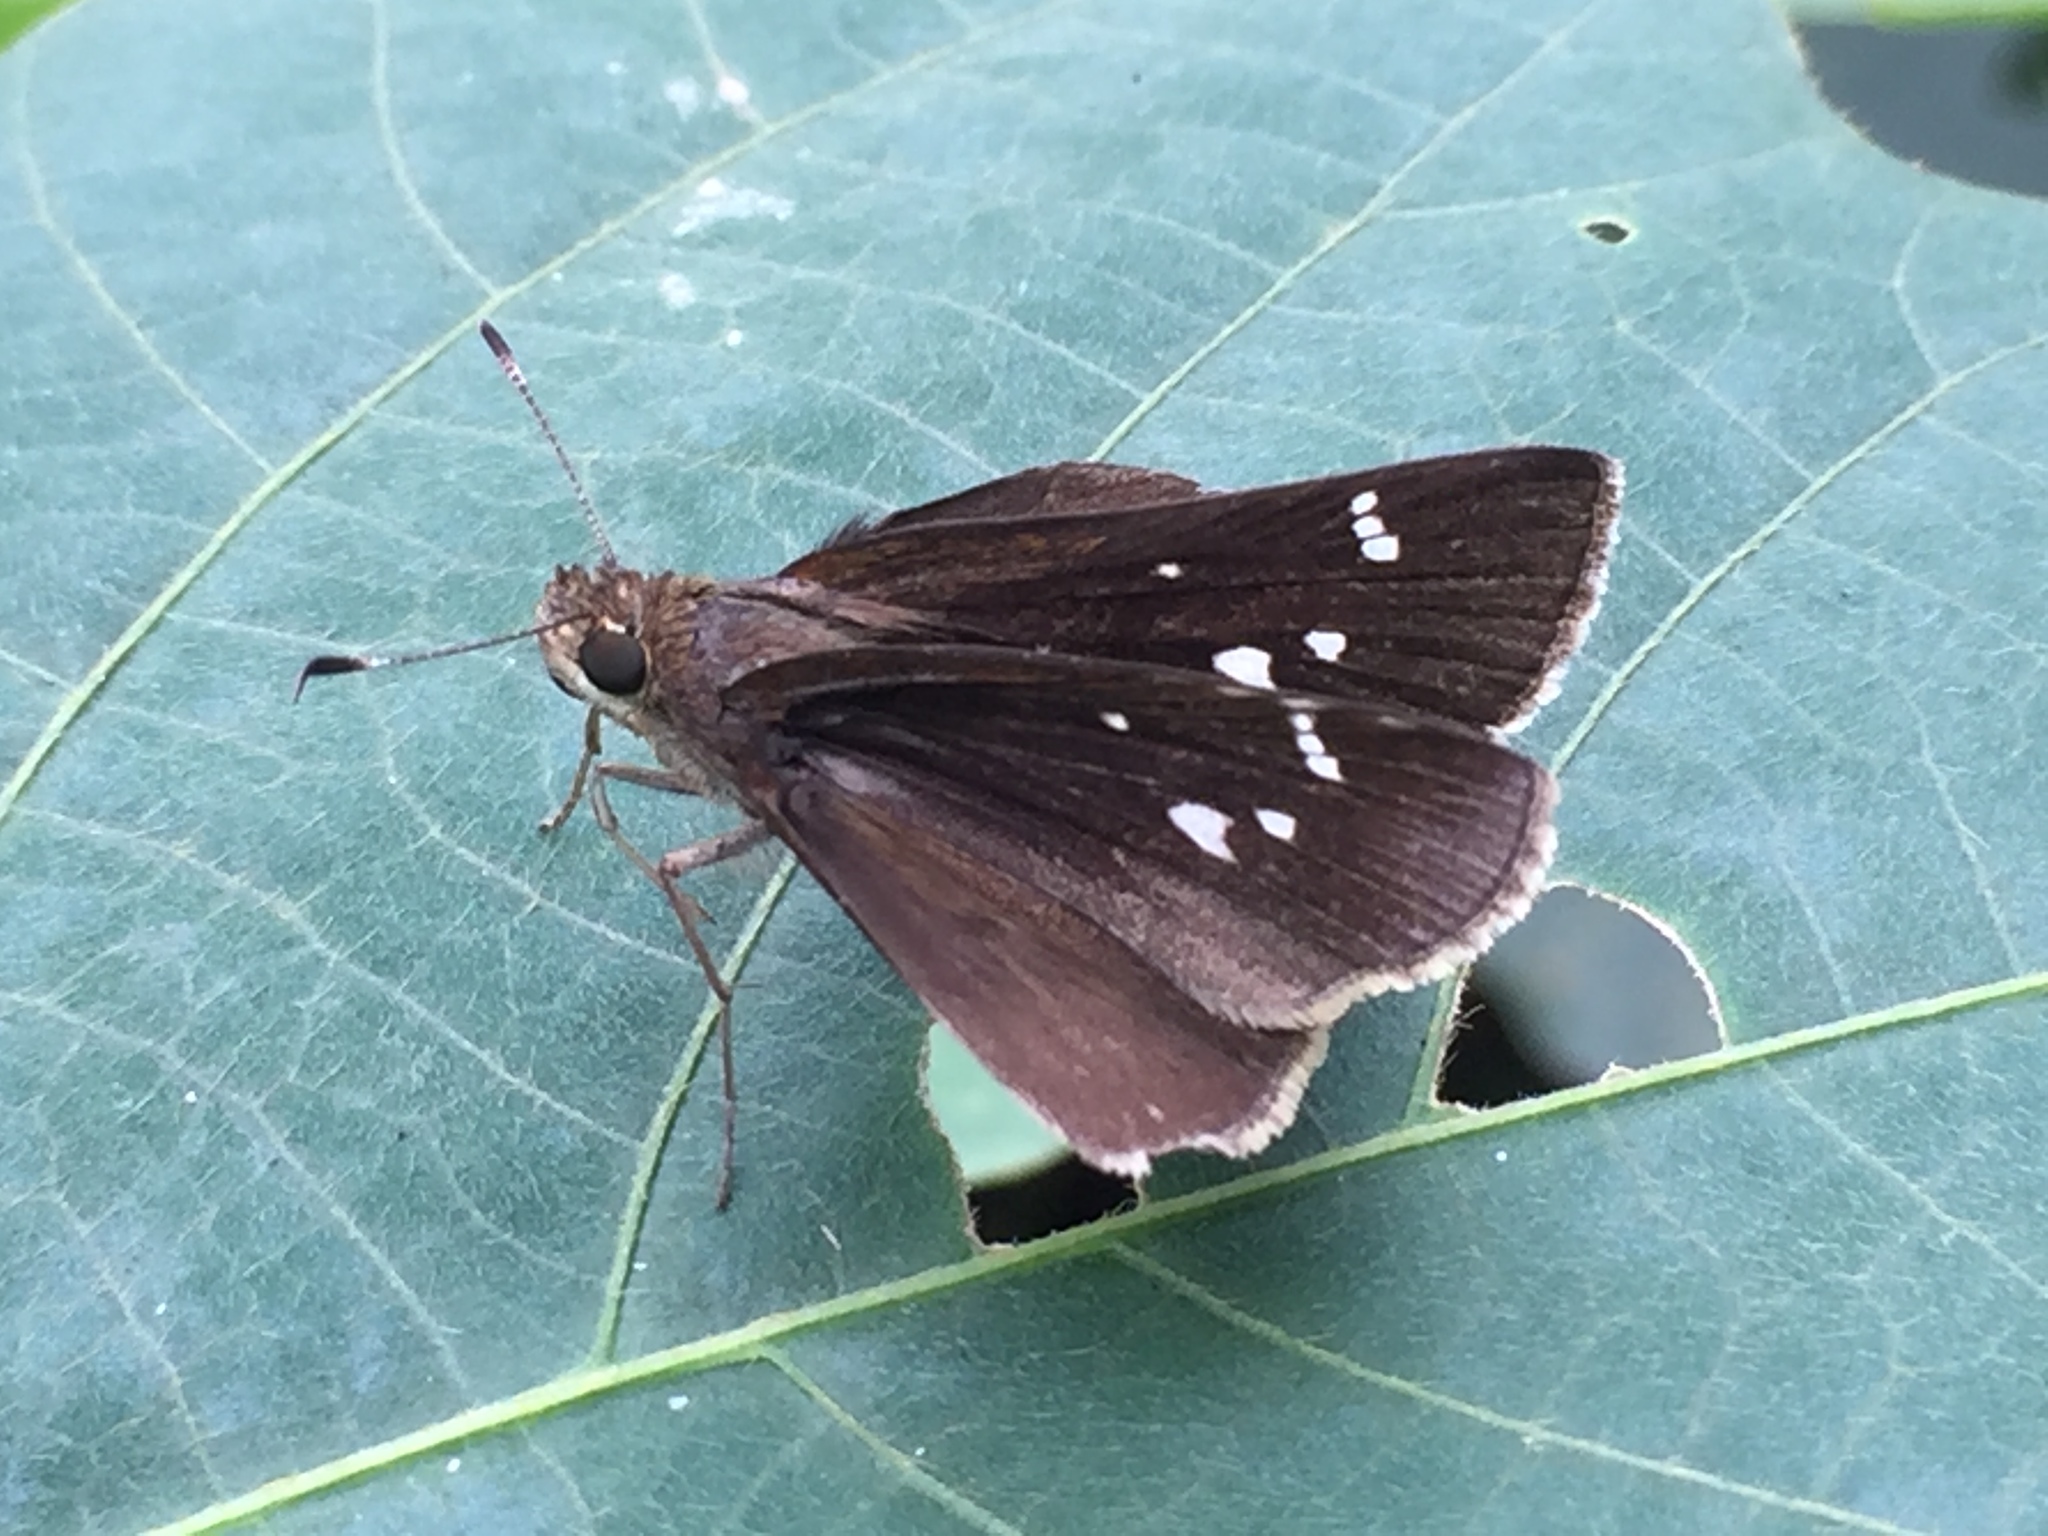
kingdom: Animalia
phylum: Arthropoda
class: Insecta
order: Lepidoptera
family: Hesperiidae
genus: Lerema
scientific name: Lerema accius
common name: Clouded skipper
